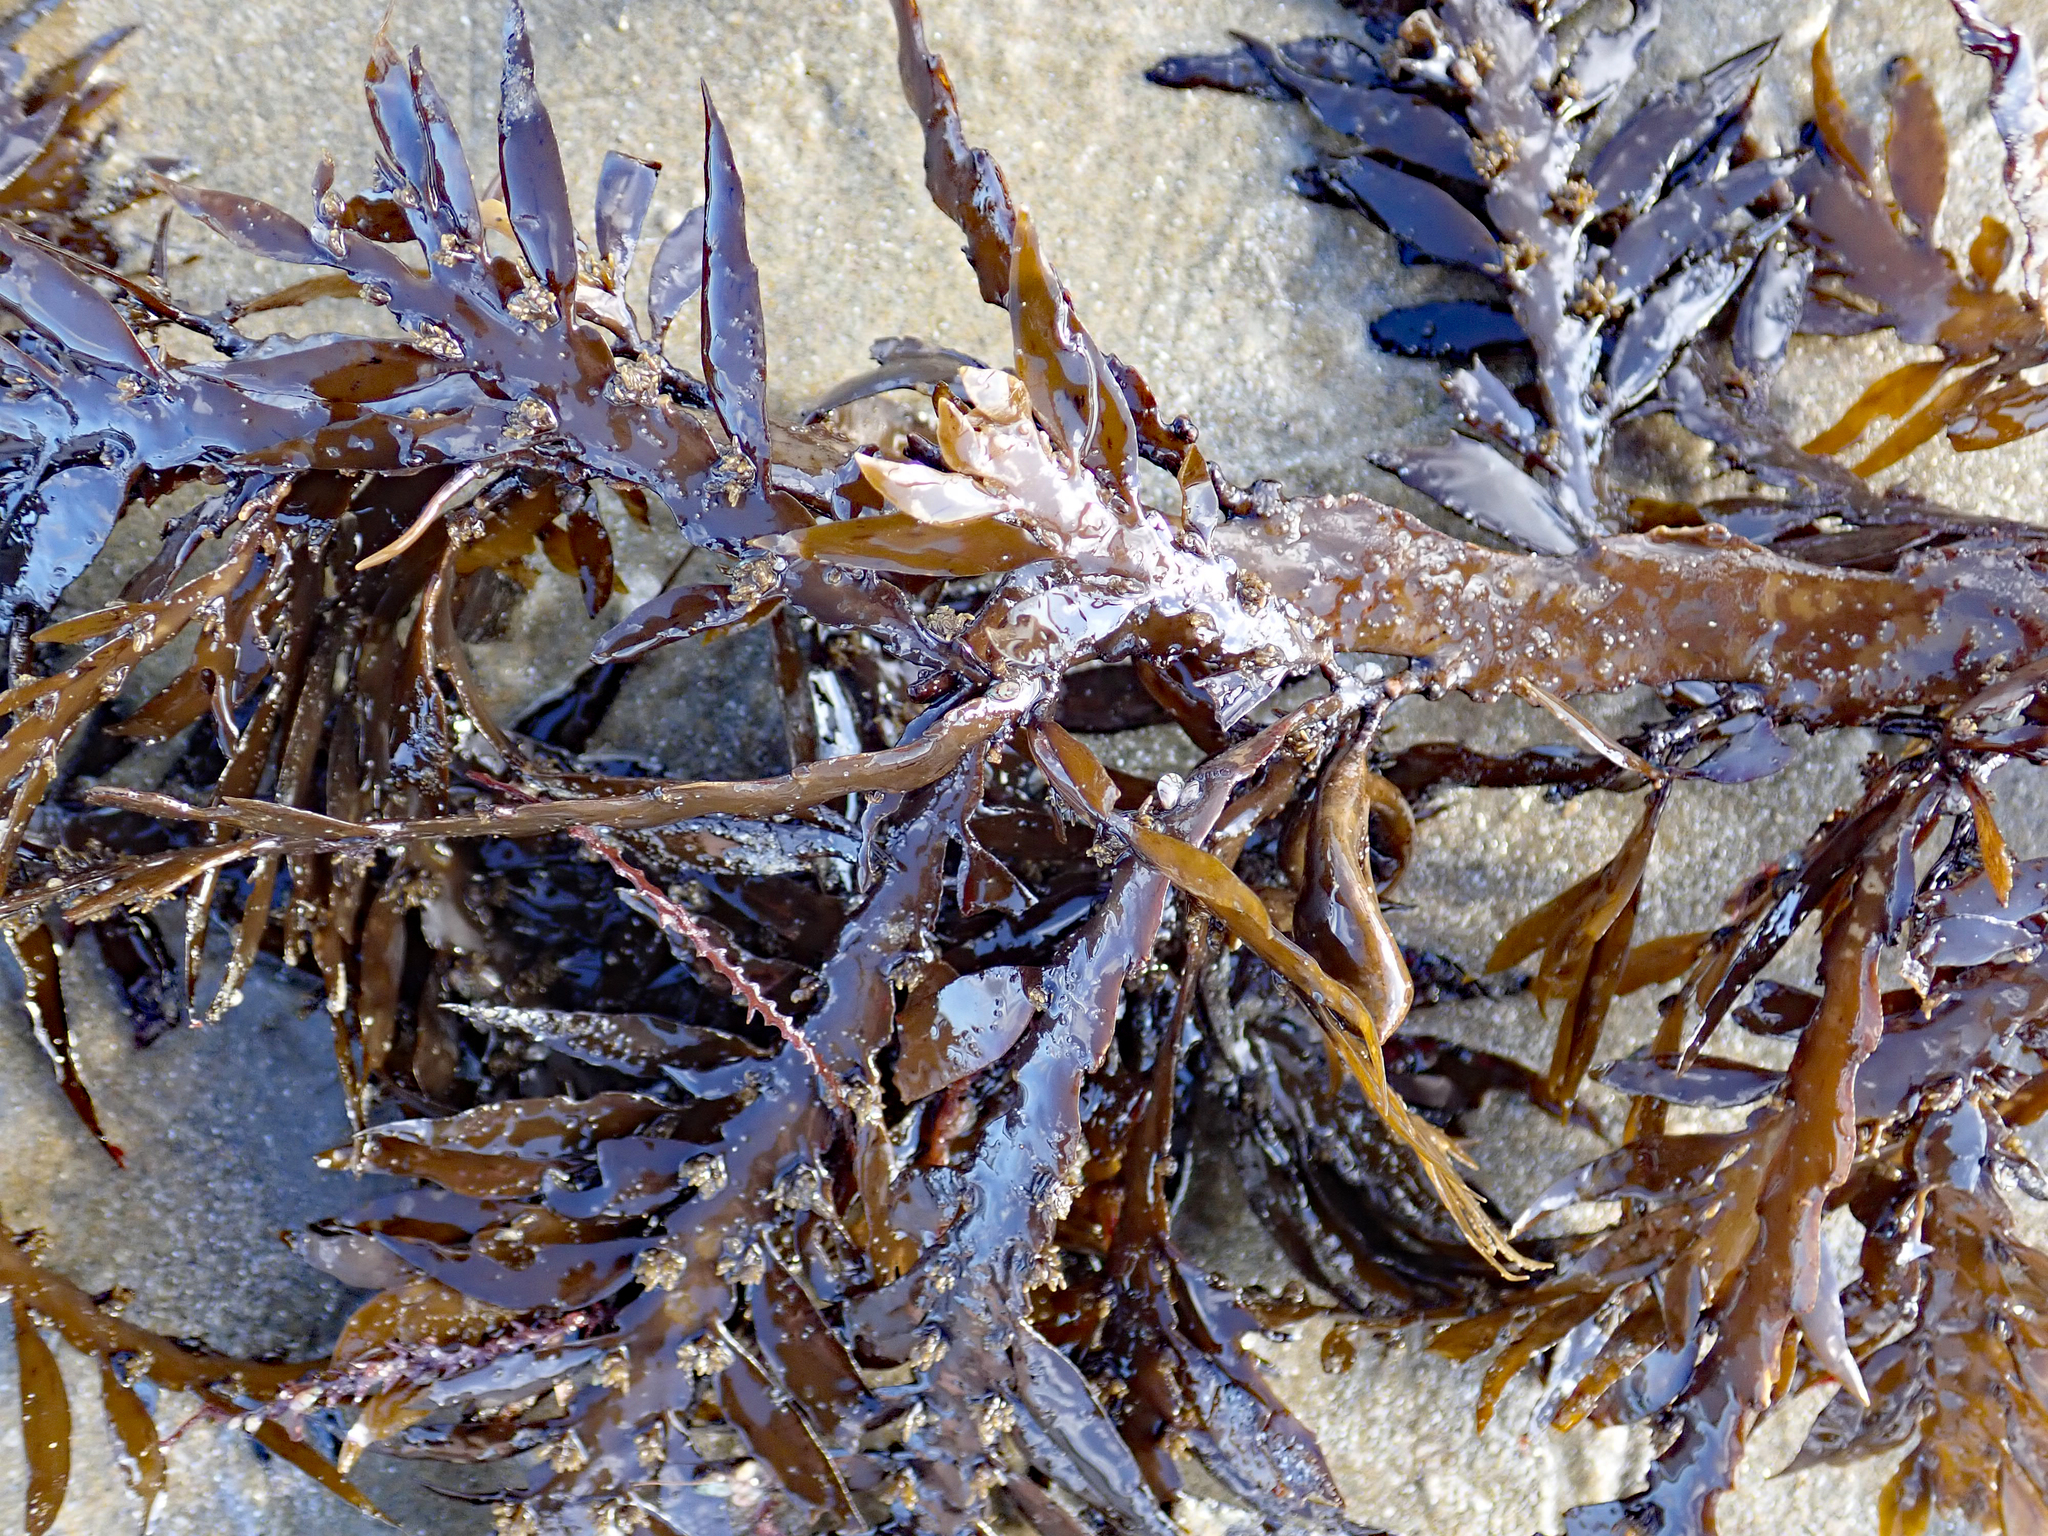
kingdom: Chromista
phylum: Ochrophyta
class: Phaeophyceae
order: Fucales
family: Sargassaceae
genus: Carpophyllum
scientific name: Carpophyllum maschalocarpum
